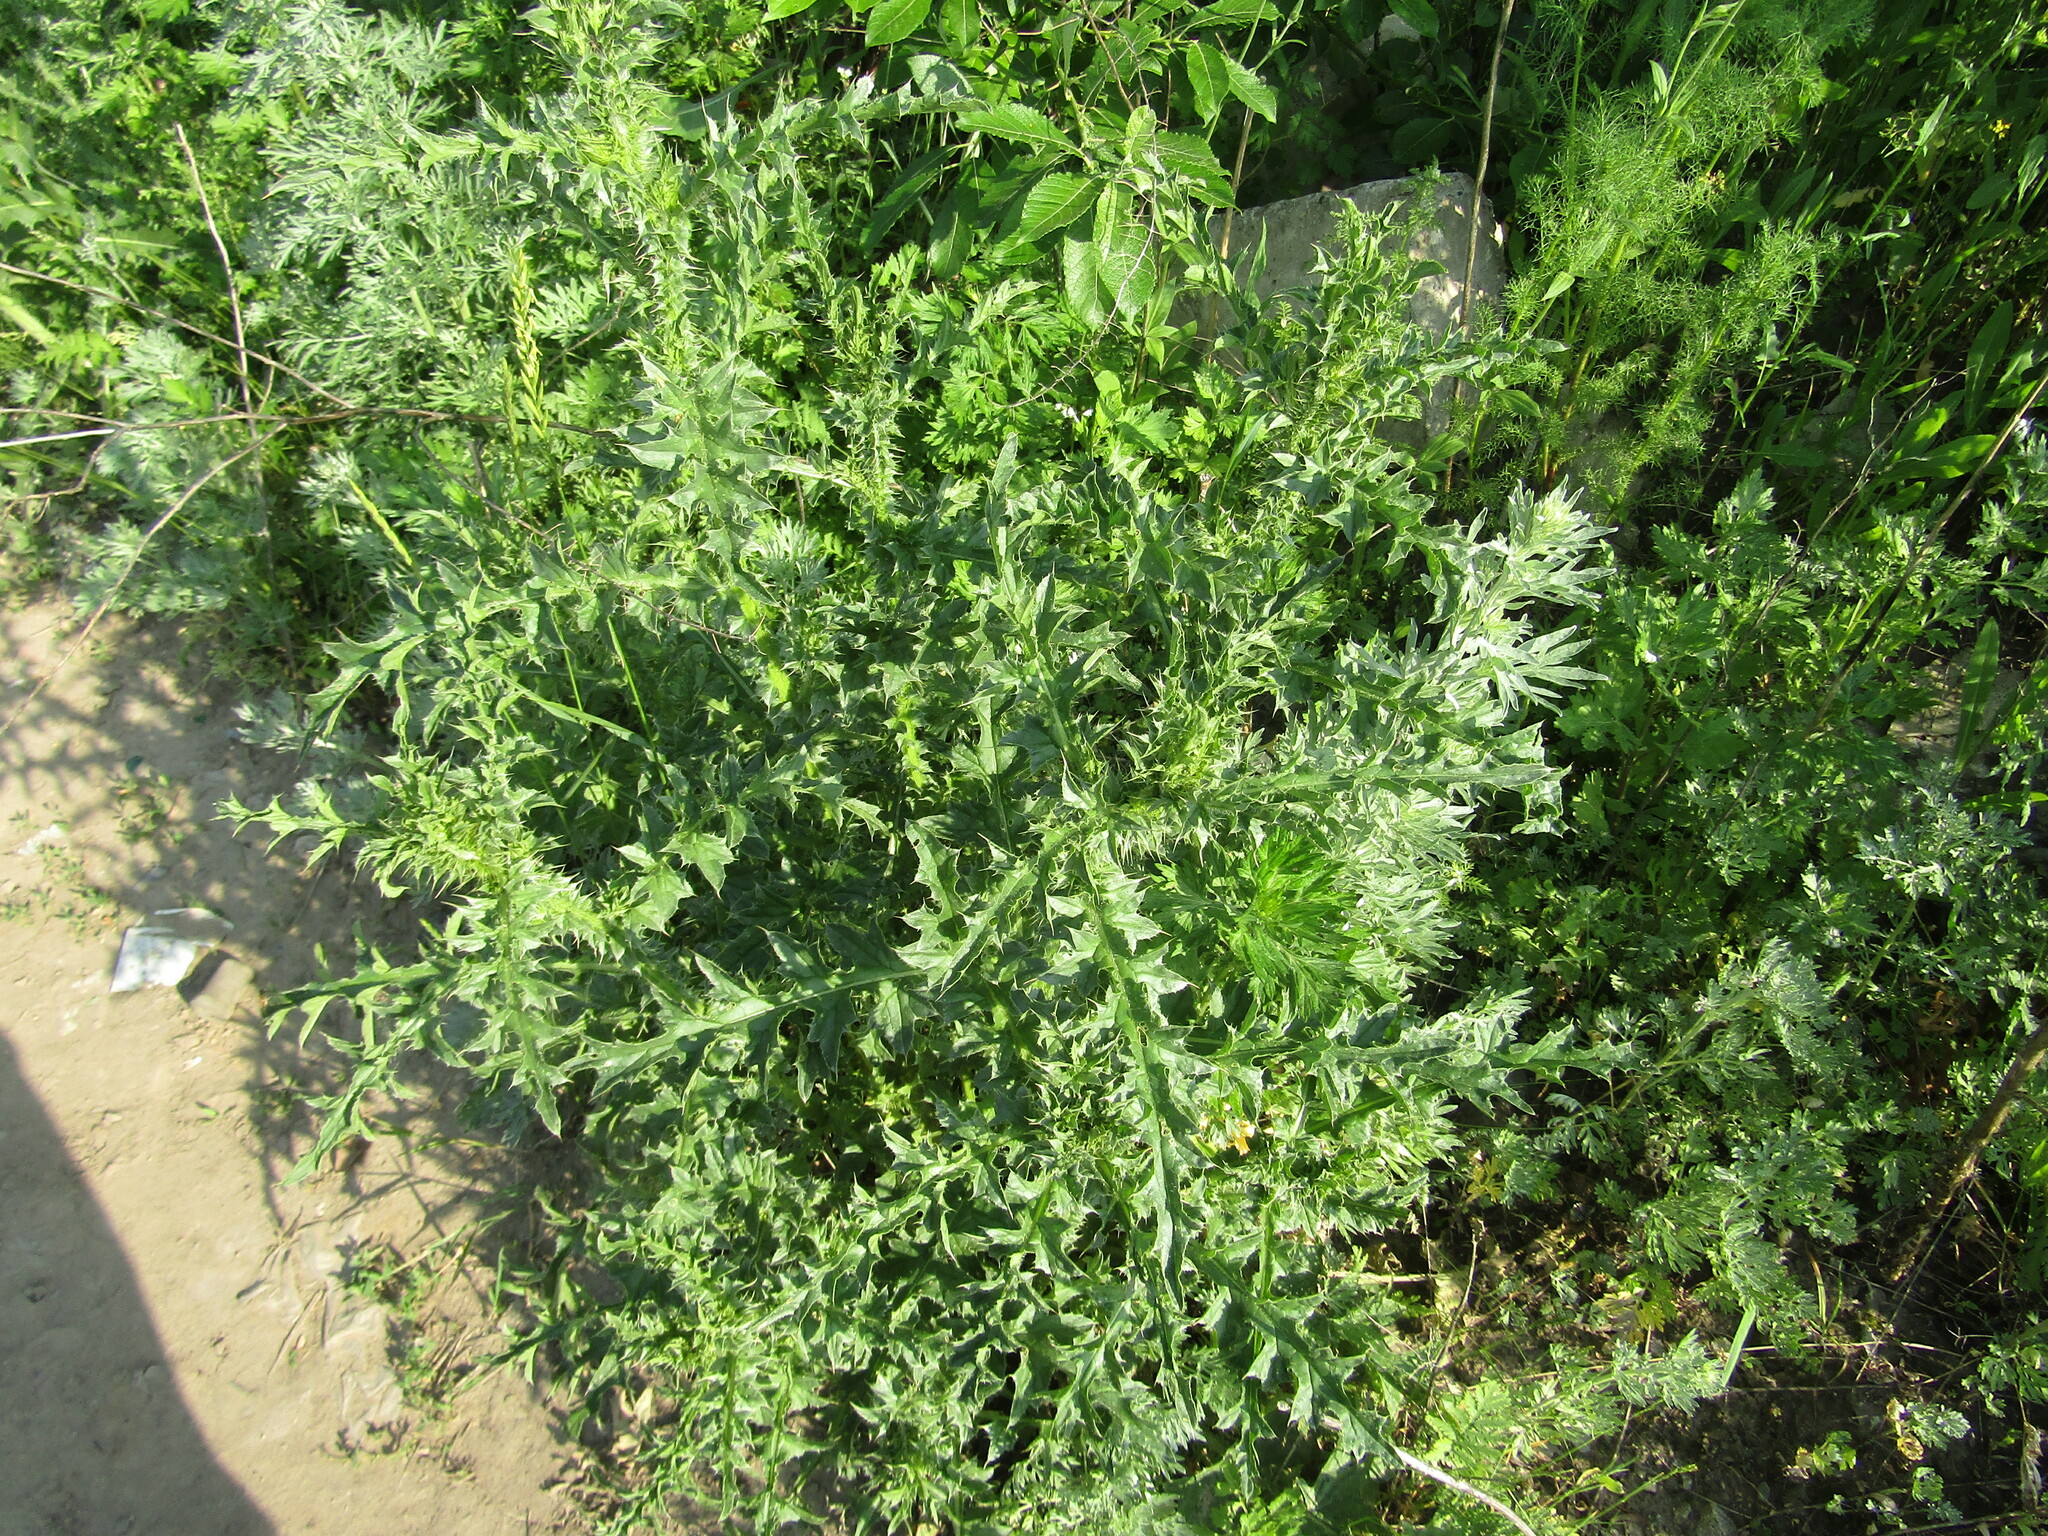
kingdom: Plantae
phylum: Tracheophyta
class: Magnoliopsida
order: Asterales
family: Asteraceae
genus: Carduus
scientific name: Carduus acanthoides
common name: Plumeless thistle
